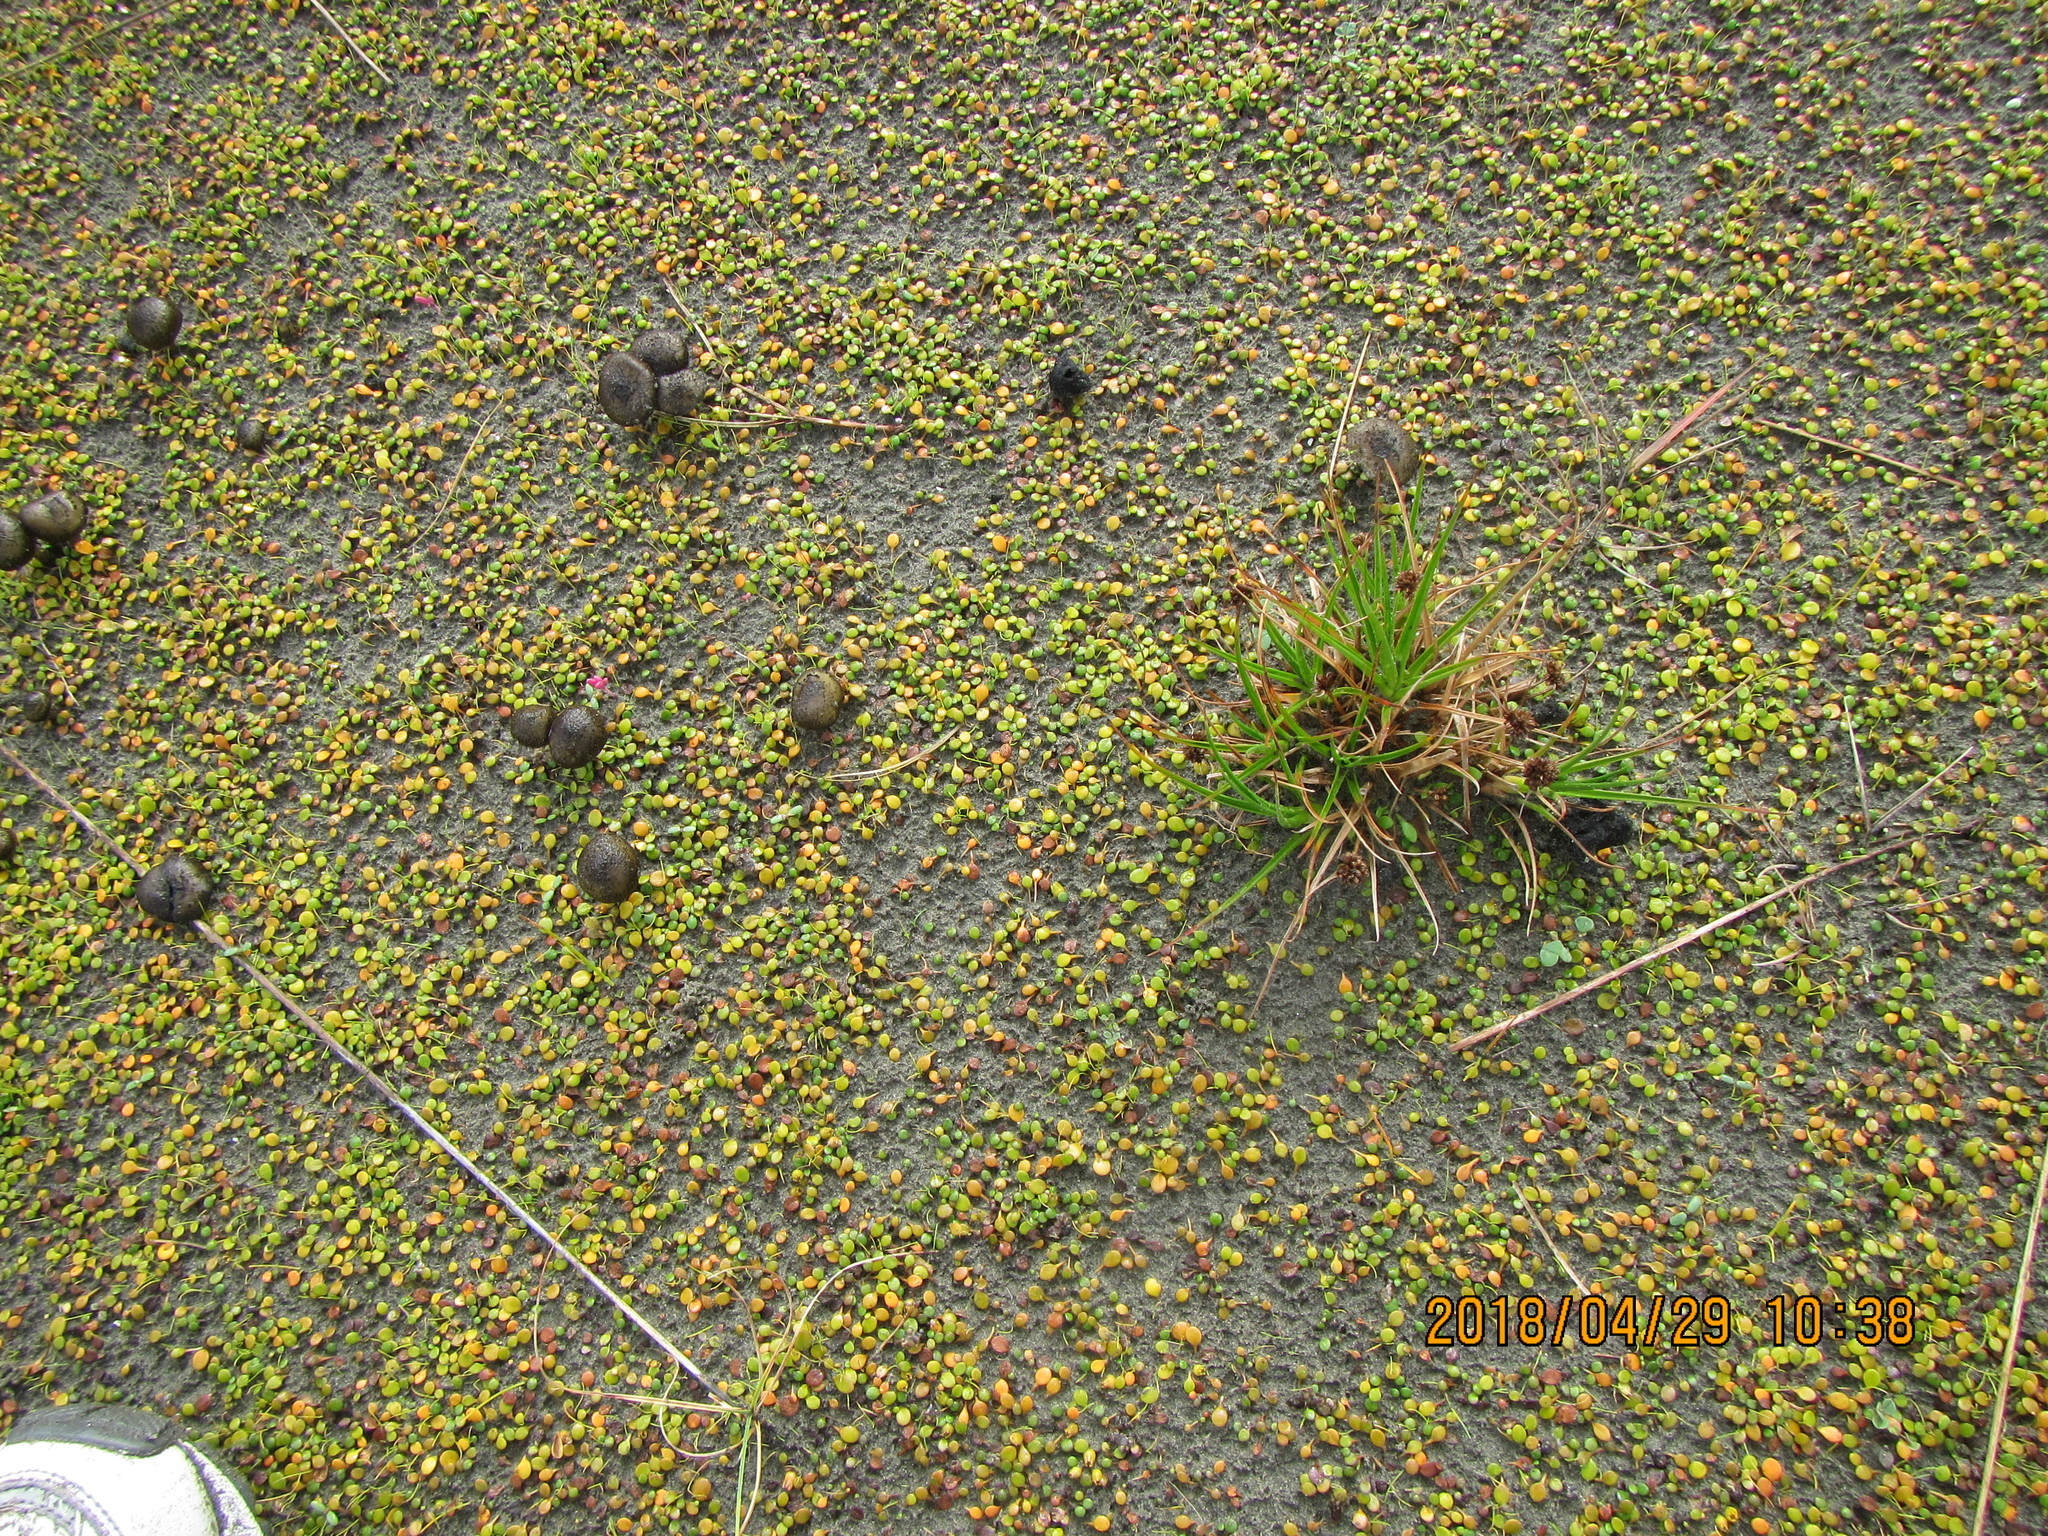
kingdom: Plantae
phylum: Tracheophyta
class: Liliopsida
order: Poales
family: Juncaceae
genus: Juncus
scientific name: Juncus caespiticius
